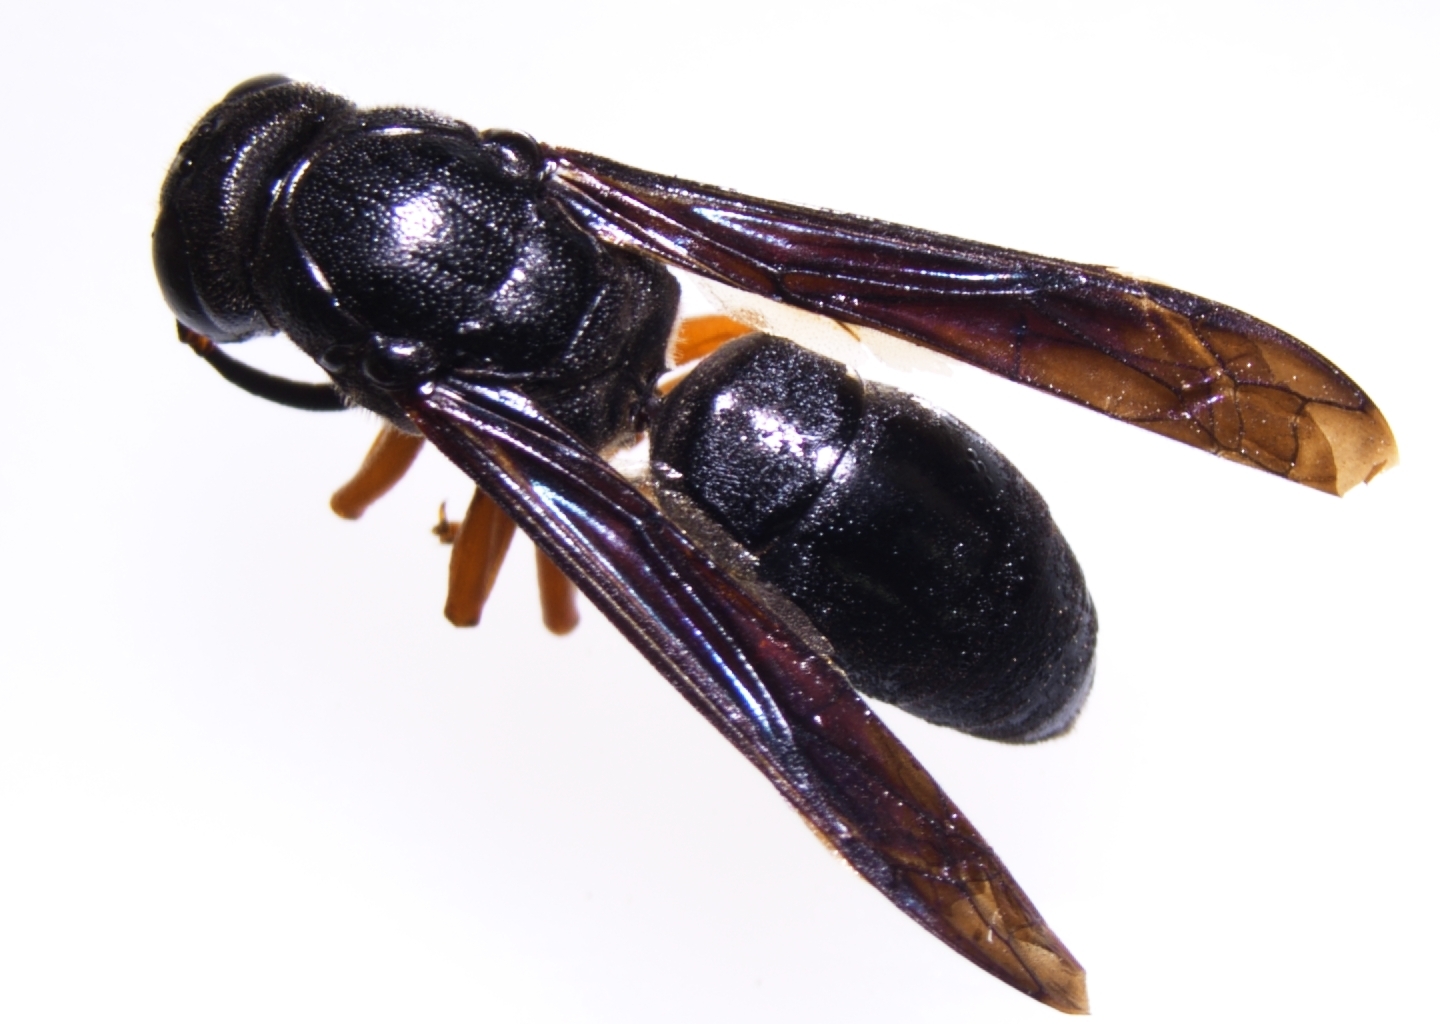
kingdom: Animalia
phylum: Arthropoda
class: Insecta
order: Hymenoptera
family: Eumenidae
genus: Anterhynchium
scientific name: Anterhynchium rufipes
